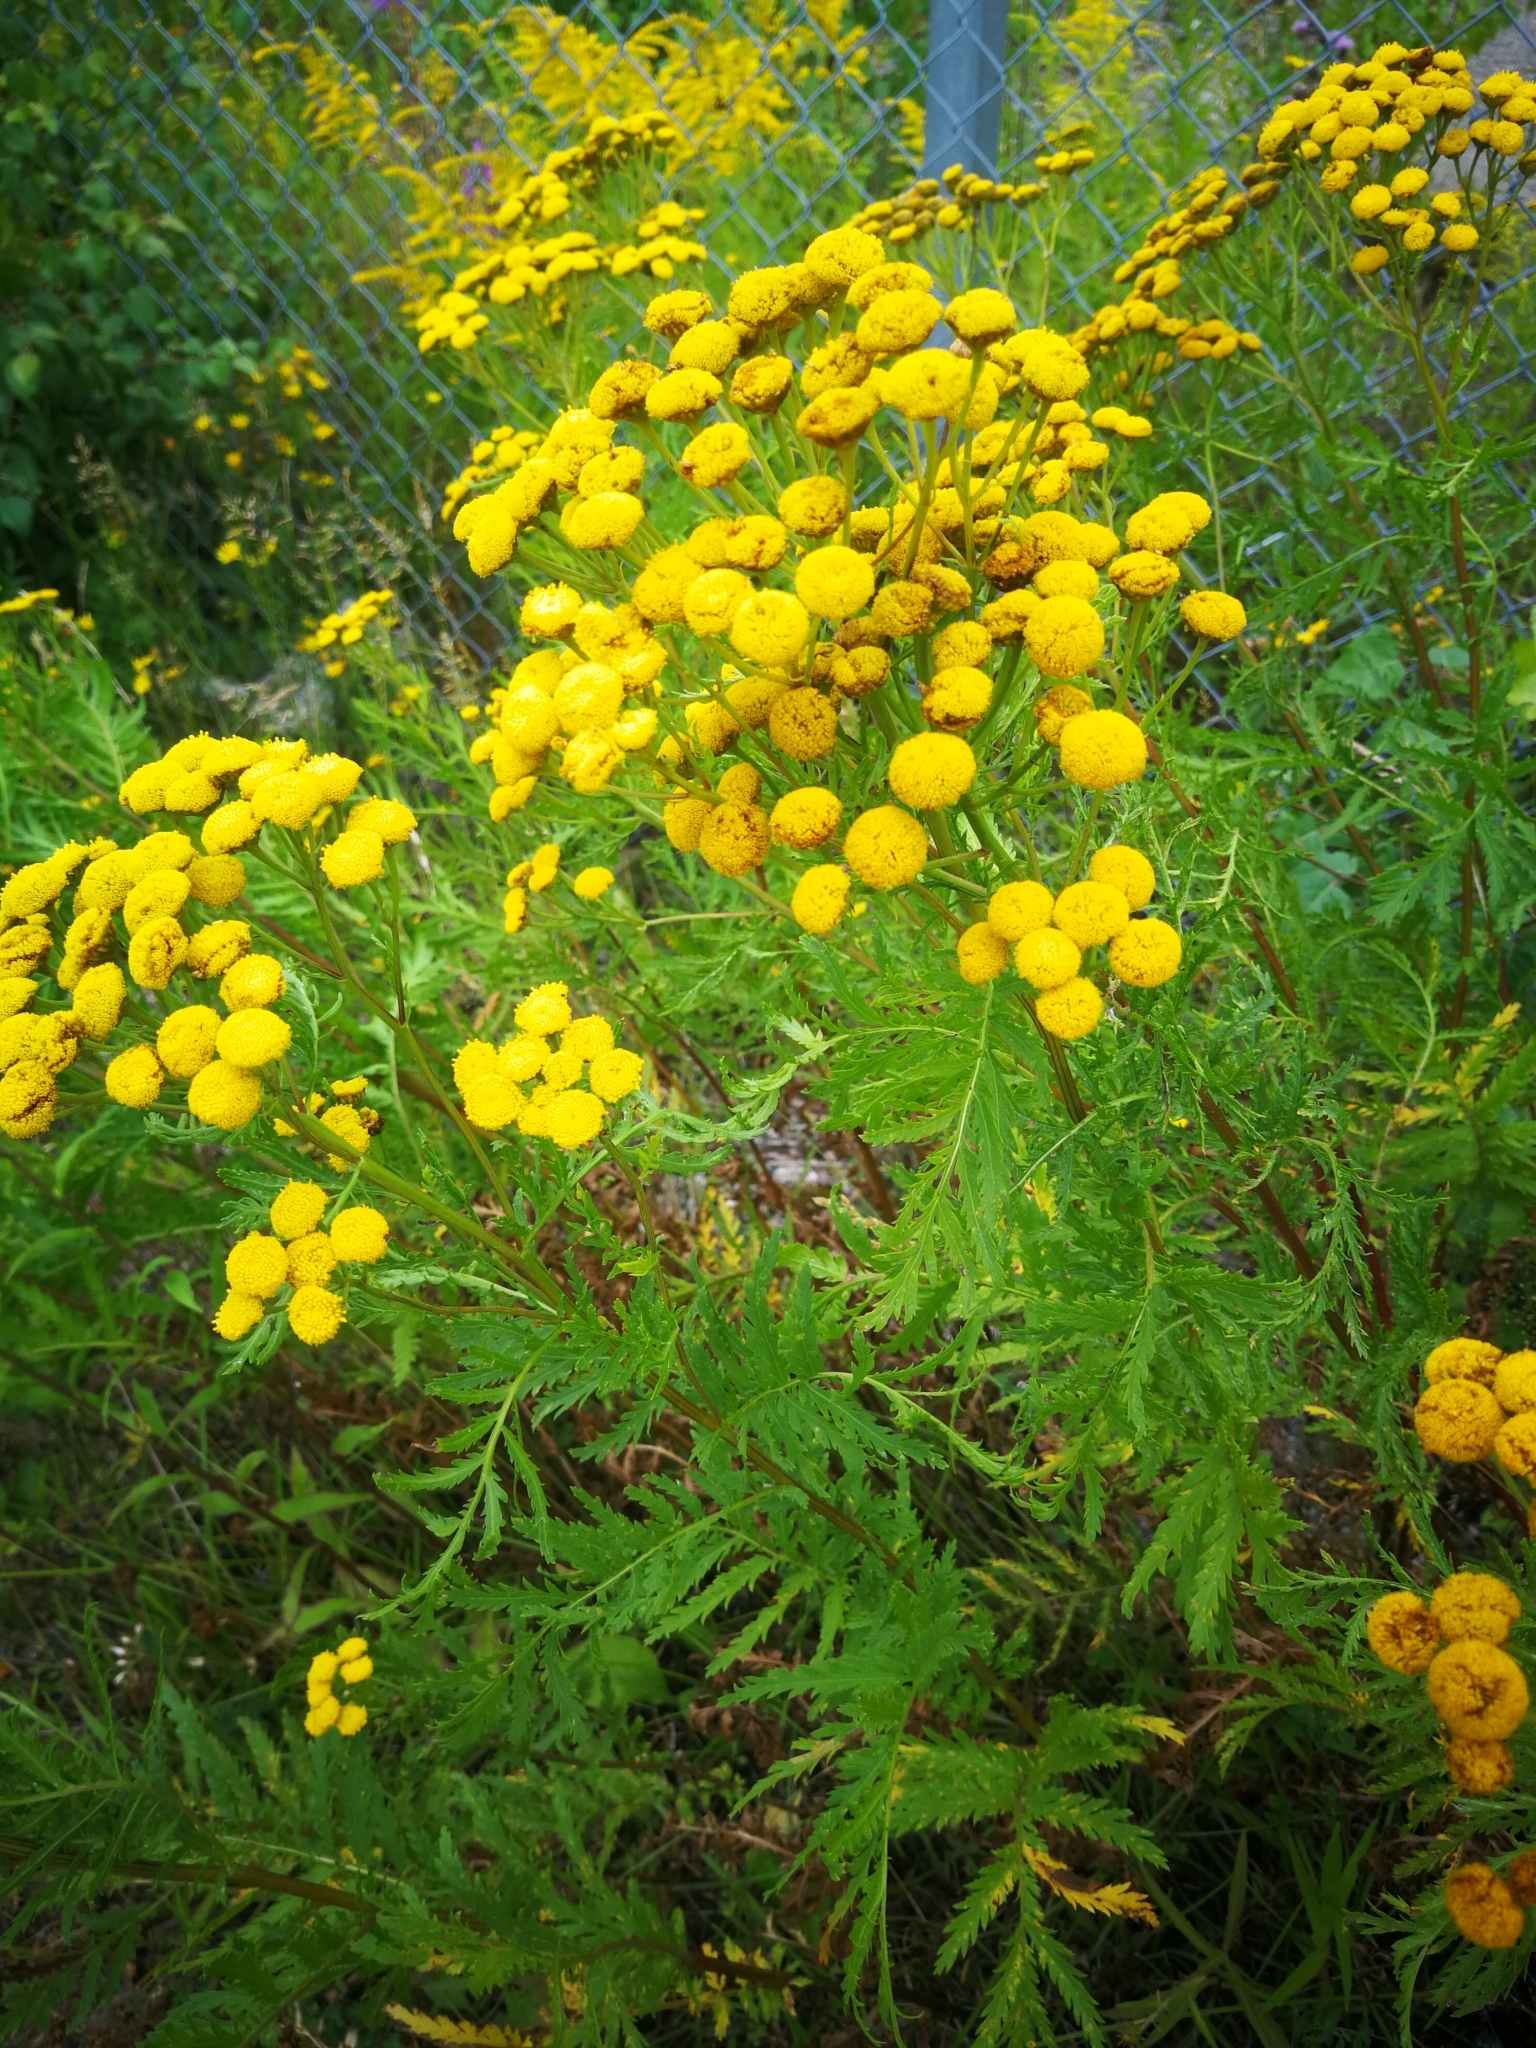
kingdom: Plantae
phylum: Tracheophyta
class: Magnoliopsida
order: Asterales
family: Asteraceae
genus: Tanacetum
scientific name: Tanacetum vulgare
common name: Common tansy
